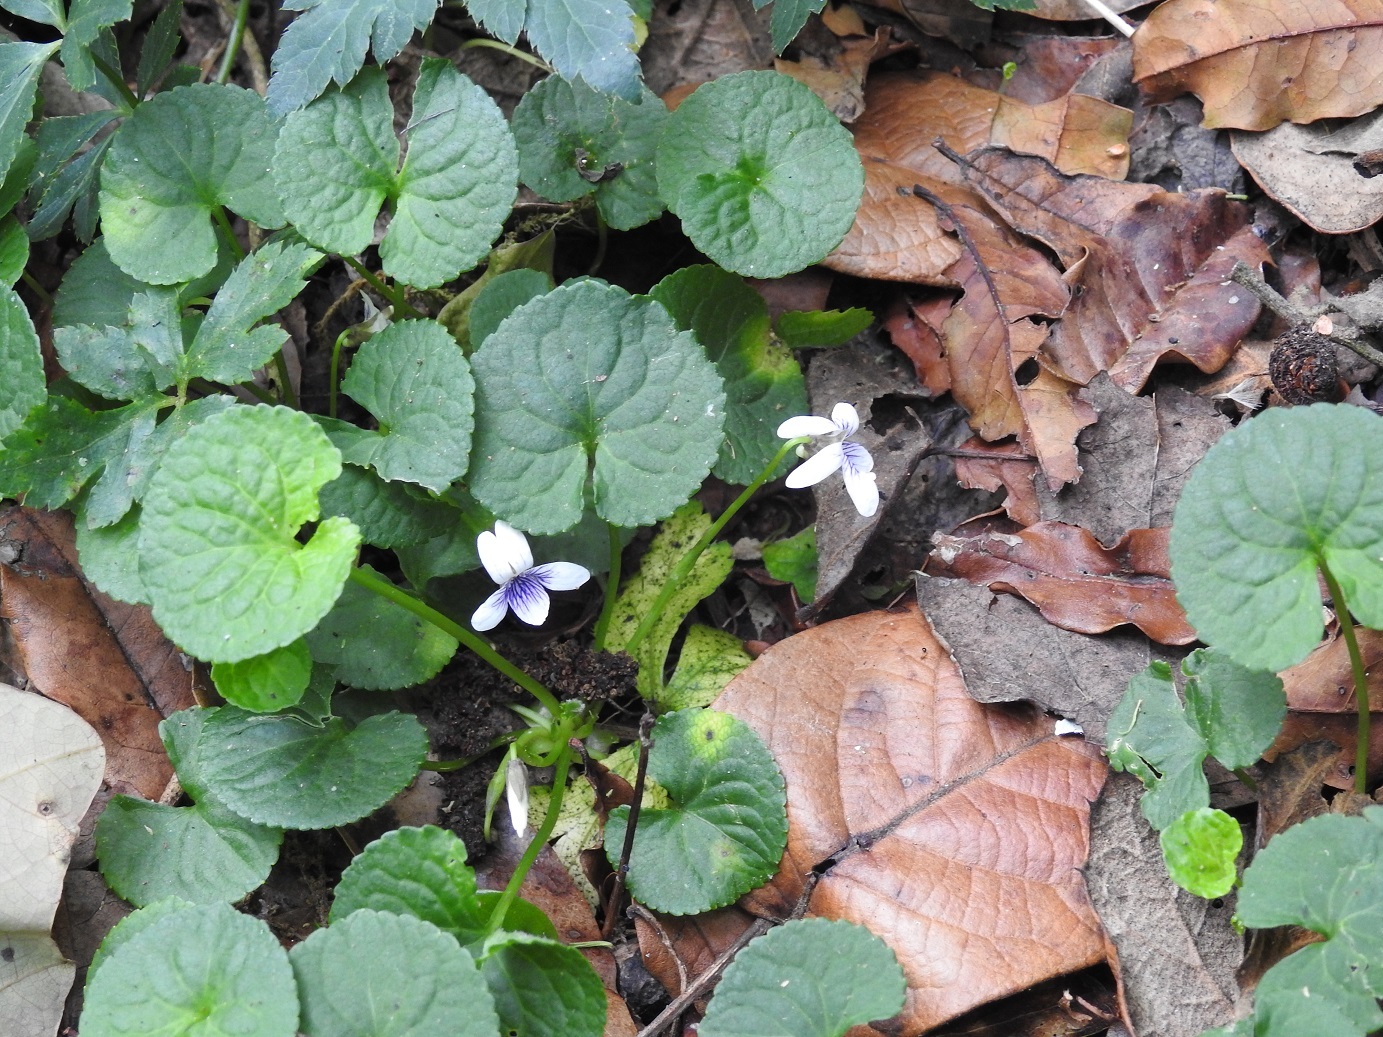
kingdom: Plantae
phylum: Tracheophyta
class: Magnoliopsida
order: Malpighiales
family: Violaceae
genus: Viola
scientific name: Viola hookeriana
